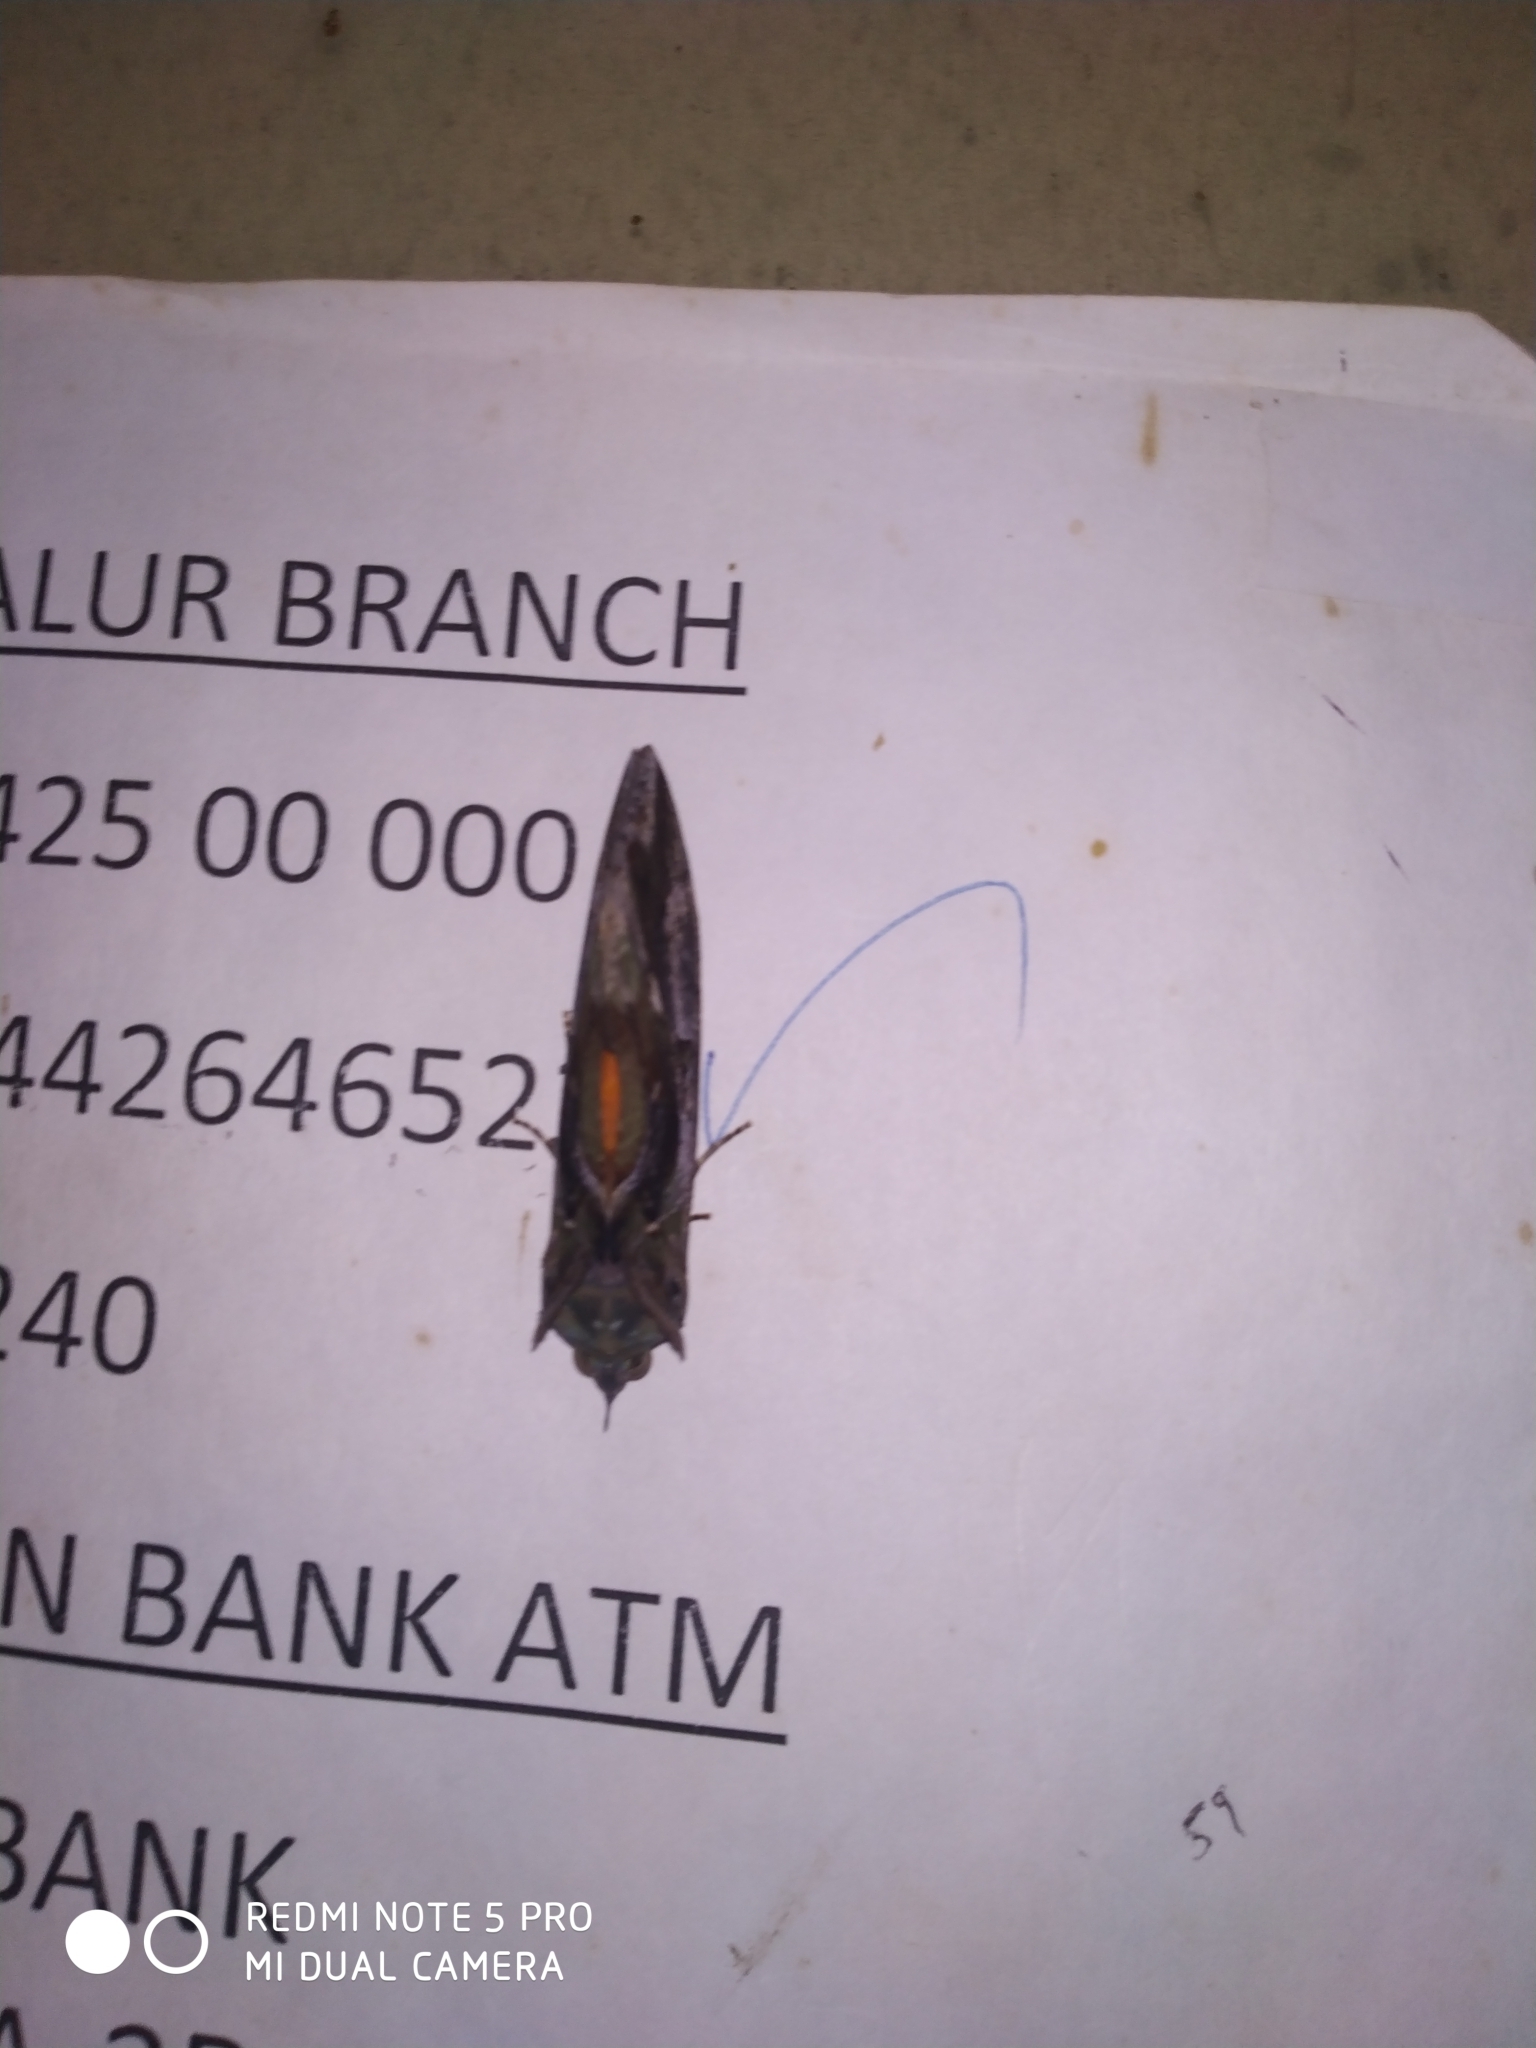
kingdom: Animalia
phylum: Arthropoda
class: Insecta
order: Lepidoptera
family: Erebidae
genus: Eudocima
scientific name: Eudocima phalonia
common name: Wasp
